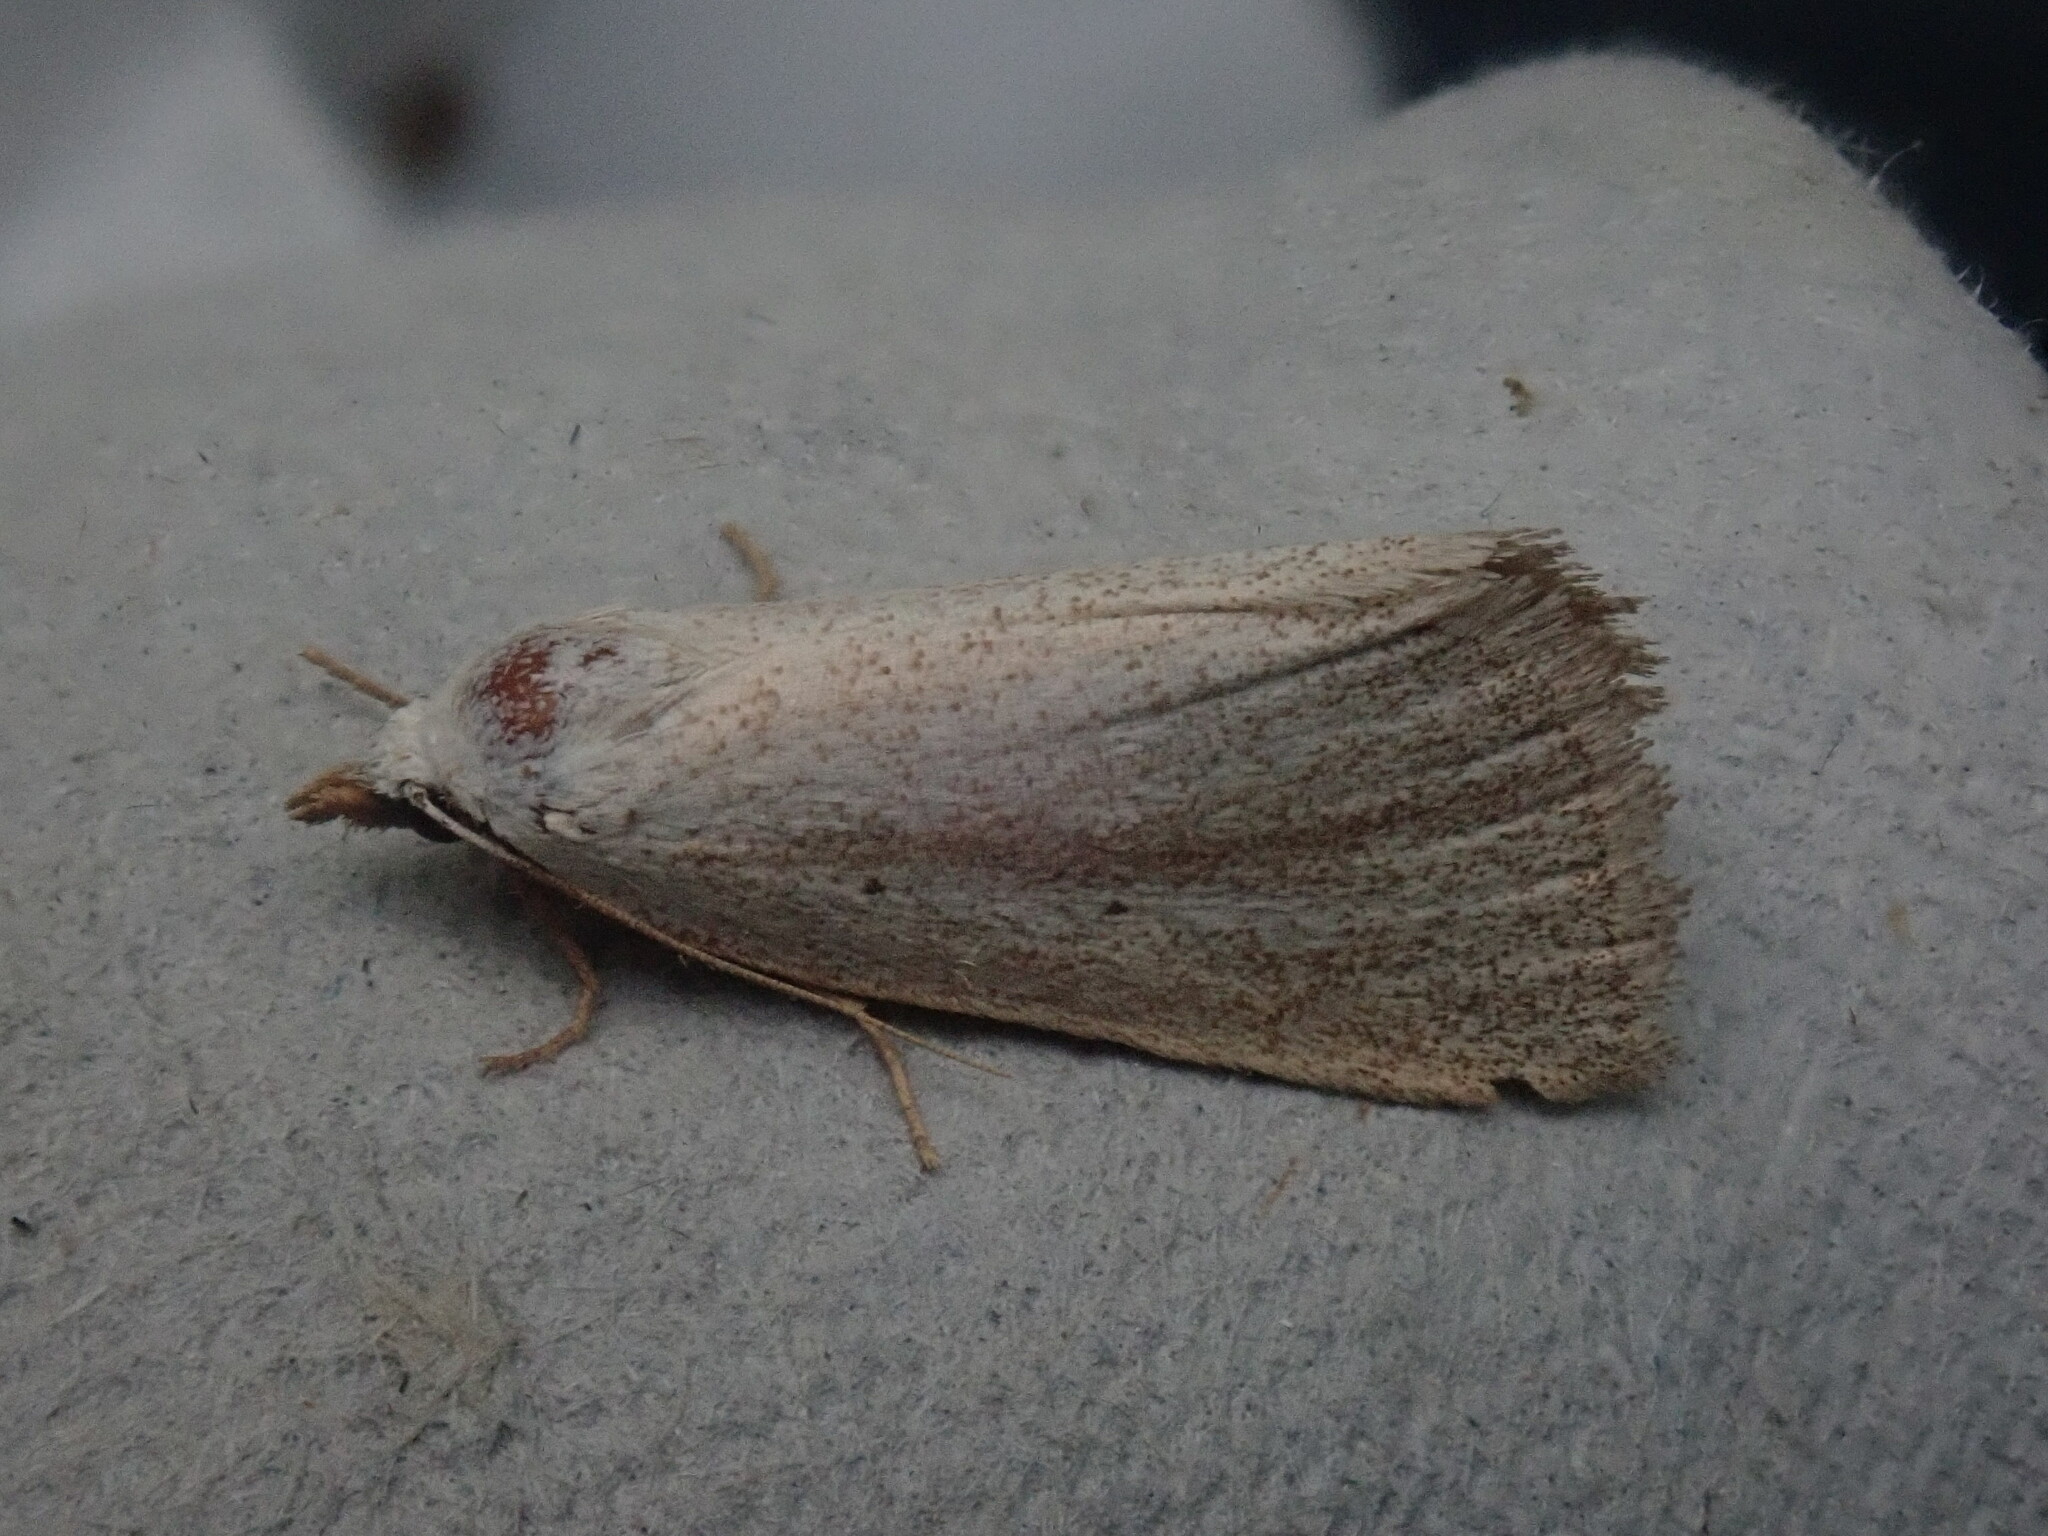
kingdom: Animalia
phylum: Arthropoda
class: Insecta
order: Lepidoptera
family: Erebidae
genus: Gabara
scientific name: Gabara subnivosella
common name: Snowy gabara
